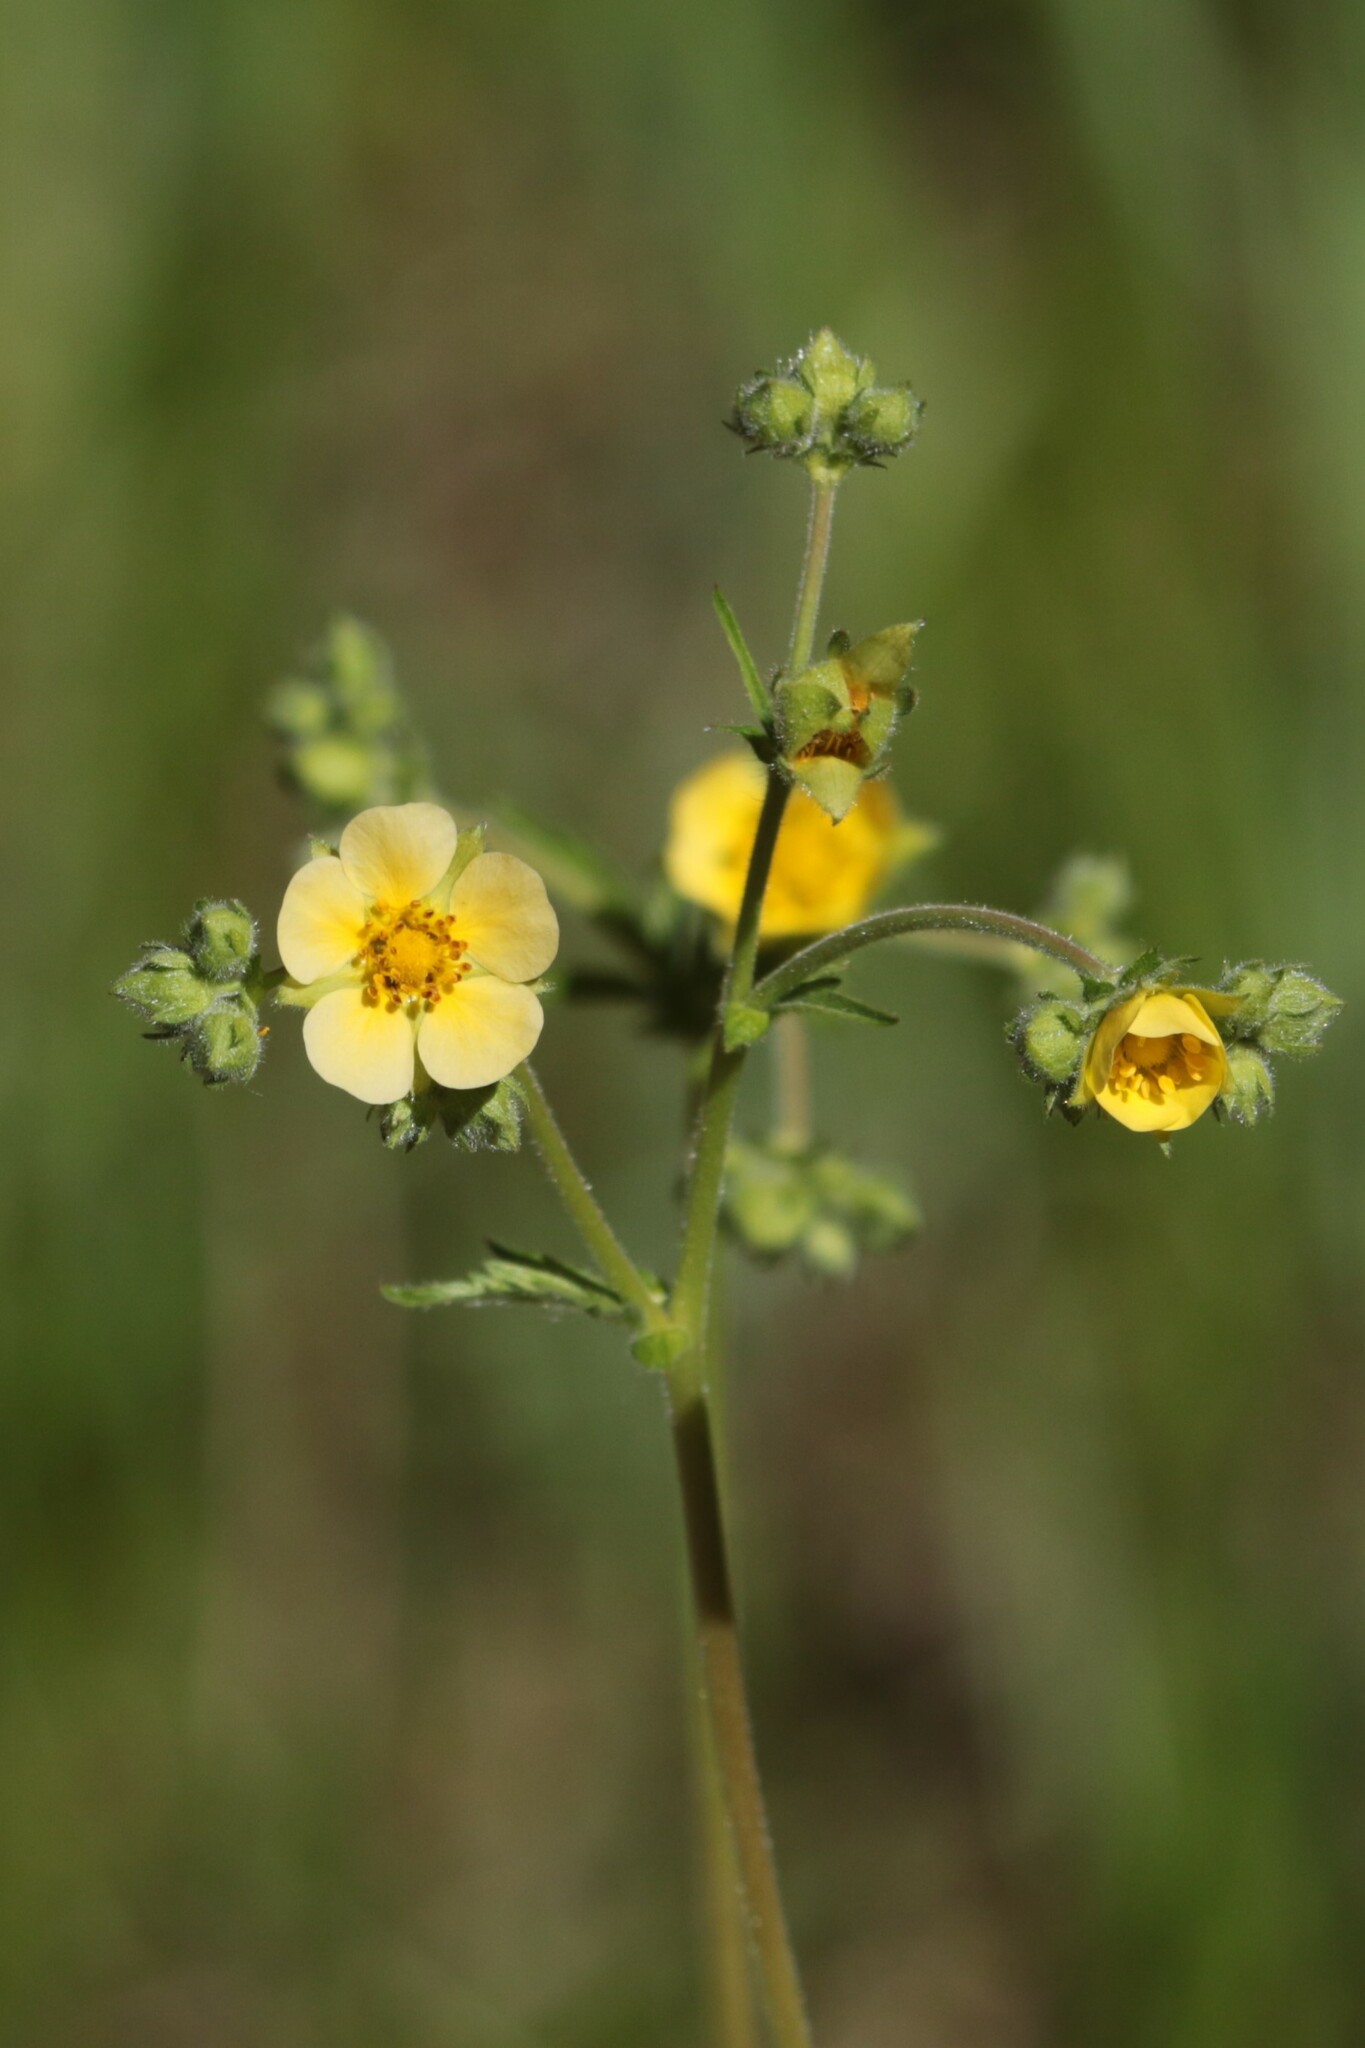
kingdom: Plantae
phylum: Tracheophyta
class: Magnoliopsida
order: Rosales
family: Rosaceae
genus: Drymocallis
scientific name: Drymocallis glandulosa
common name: Sticky cinquefoil
